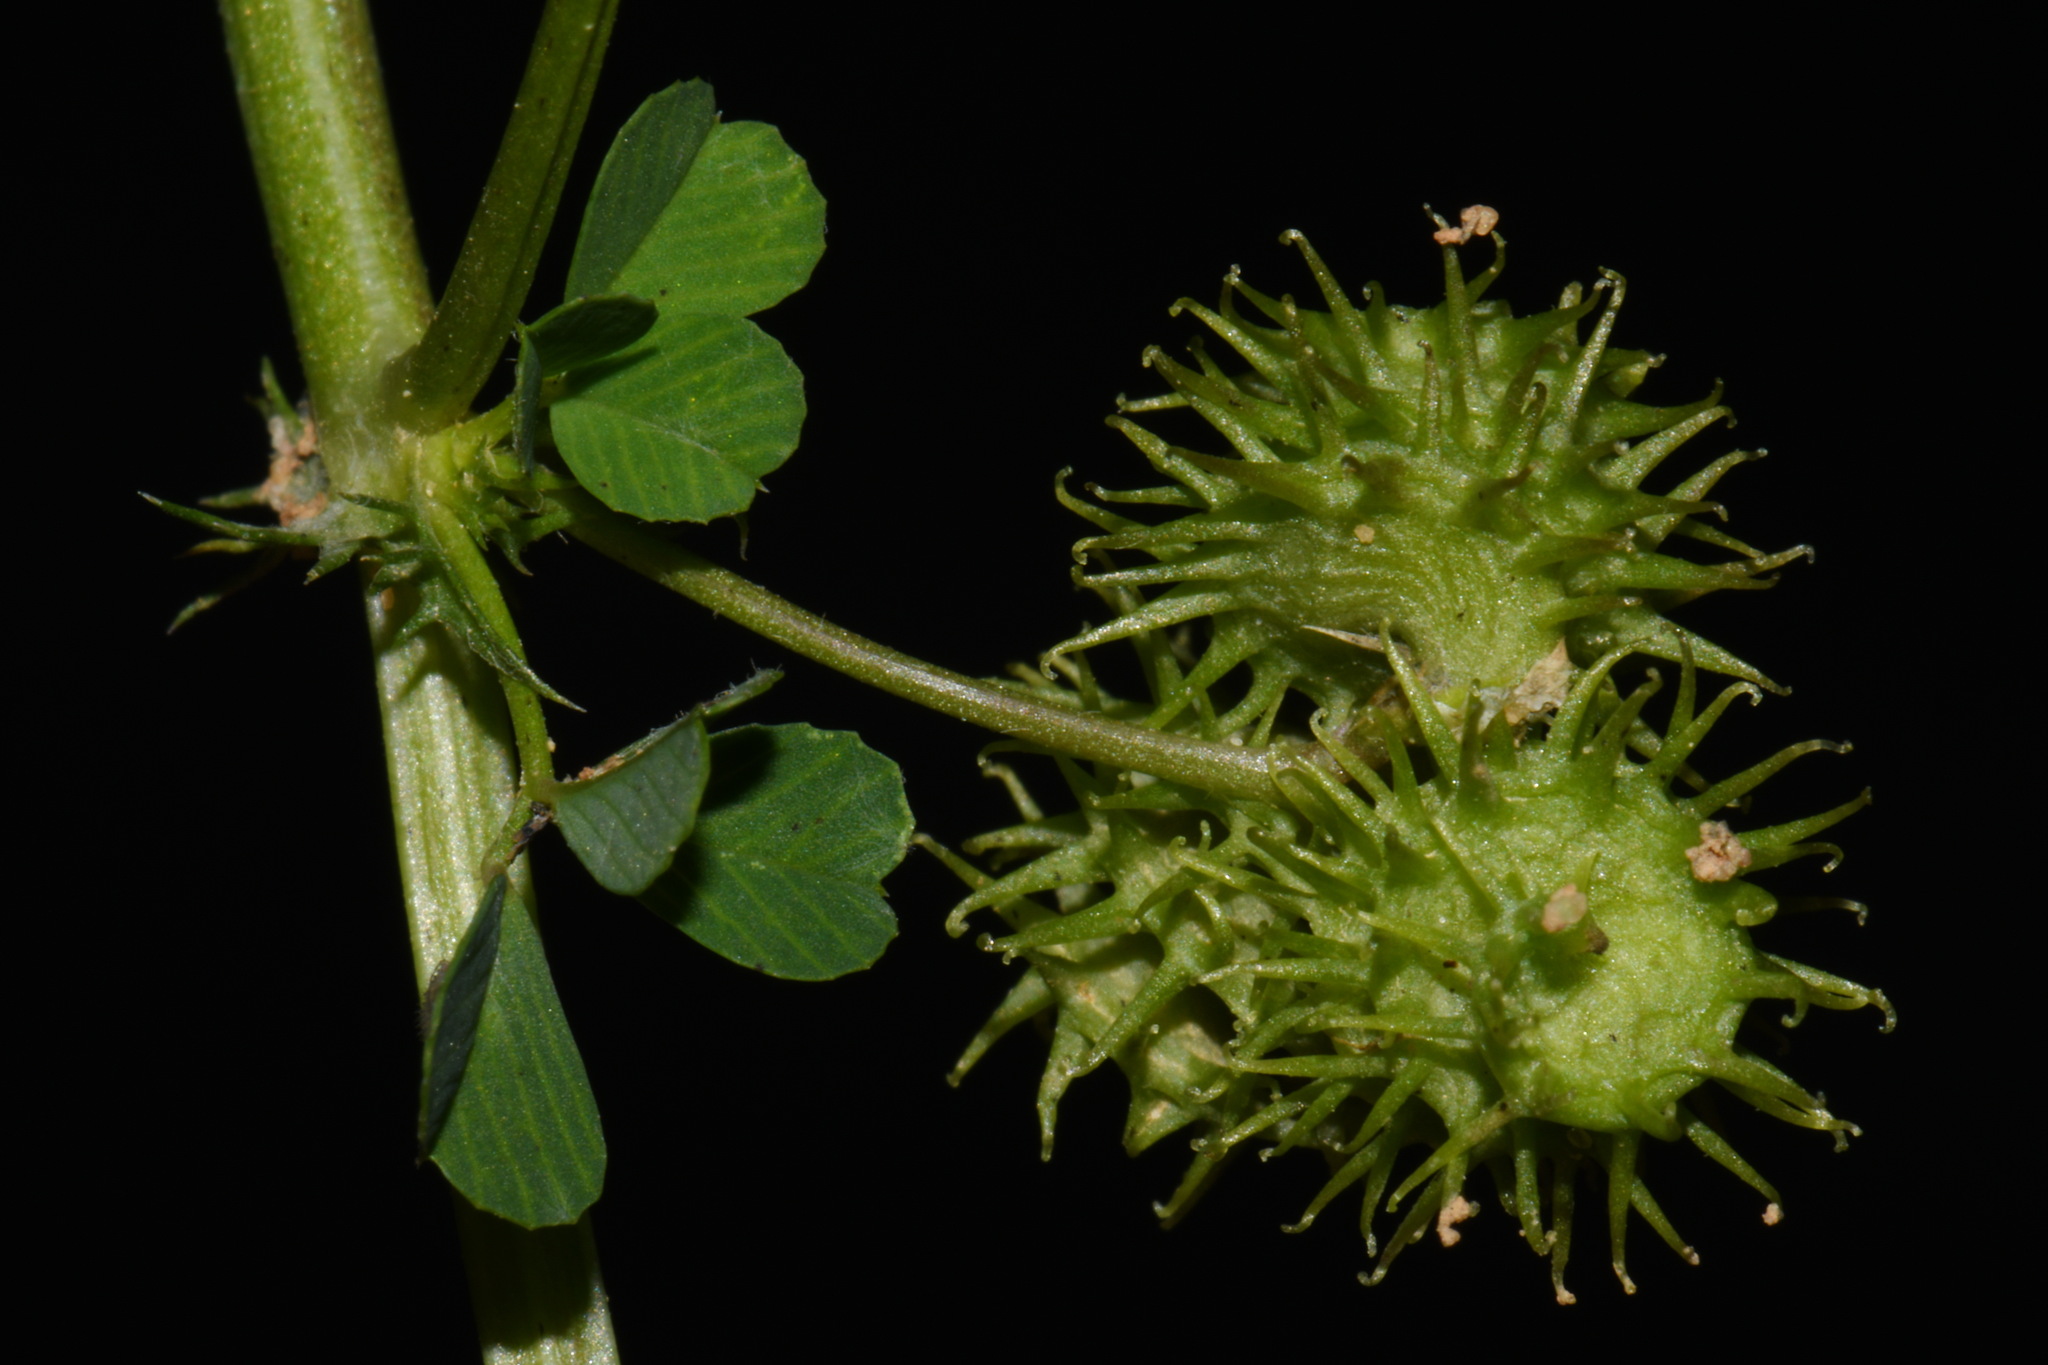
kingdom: Plantae
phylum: Tracheophyta
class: Magnoliopsida
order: Fabales
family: Fabaceae
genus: Medicago
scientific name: Medicago polymorpha
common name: Burclover
